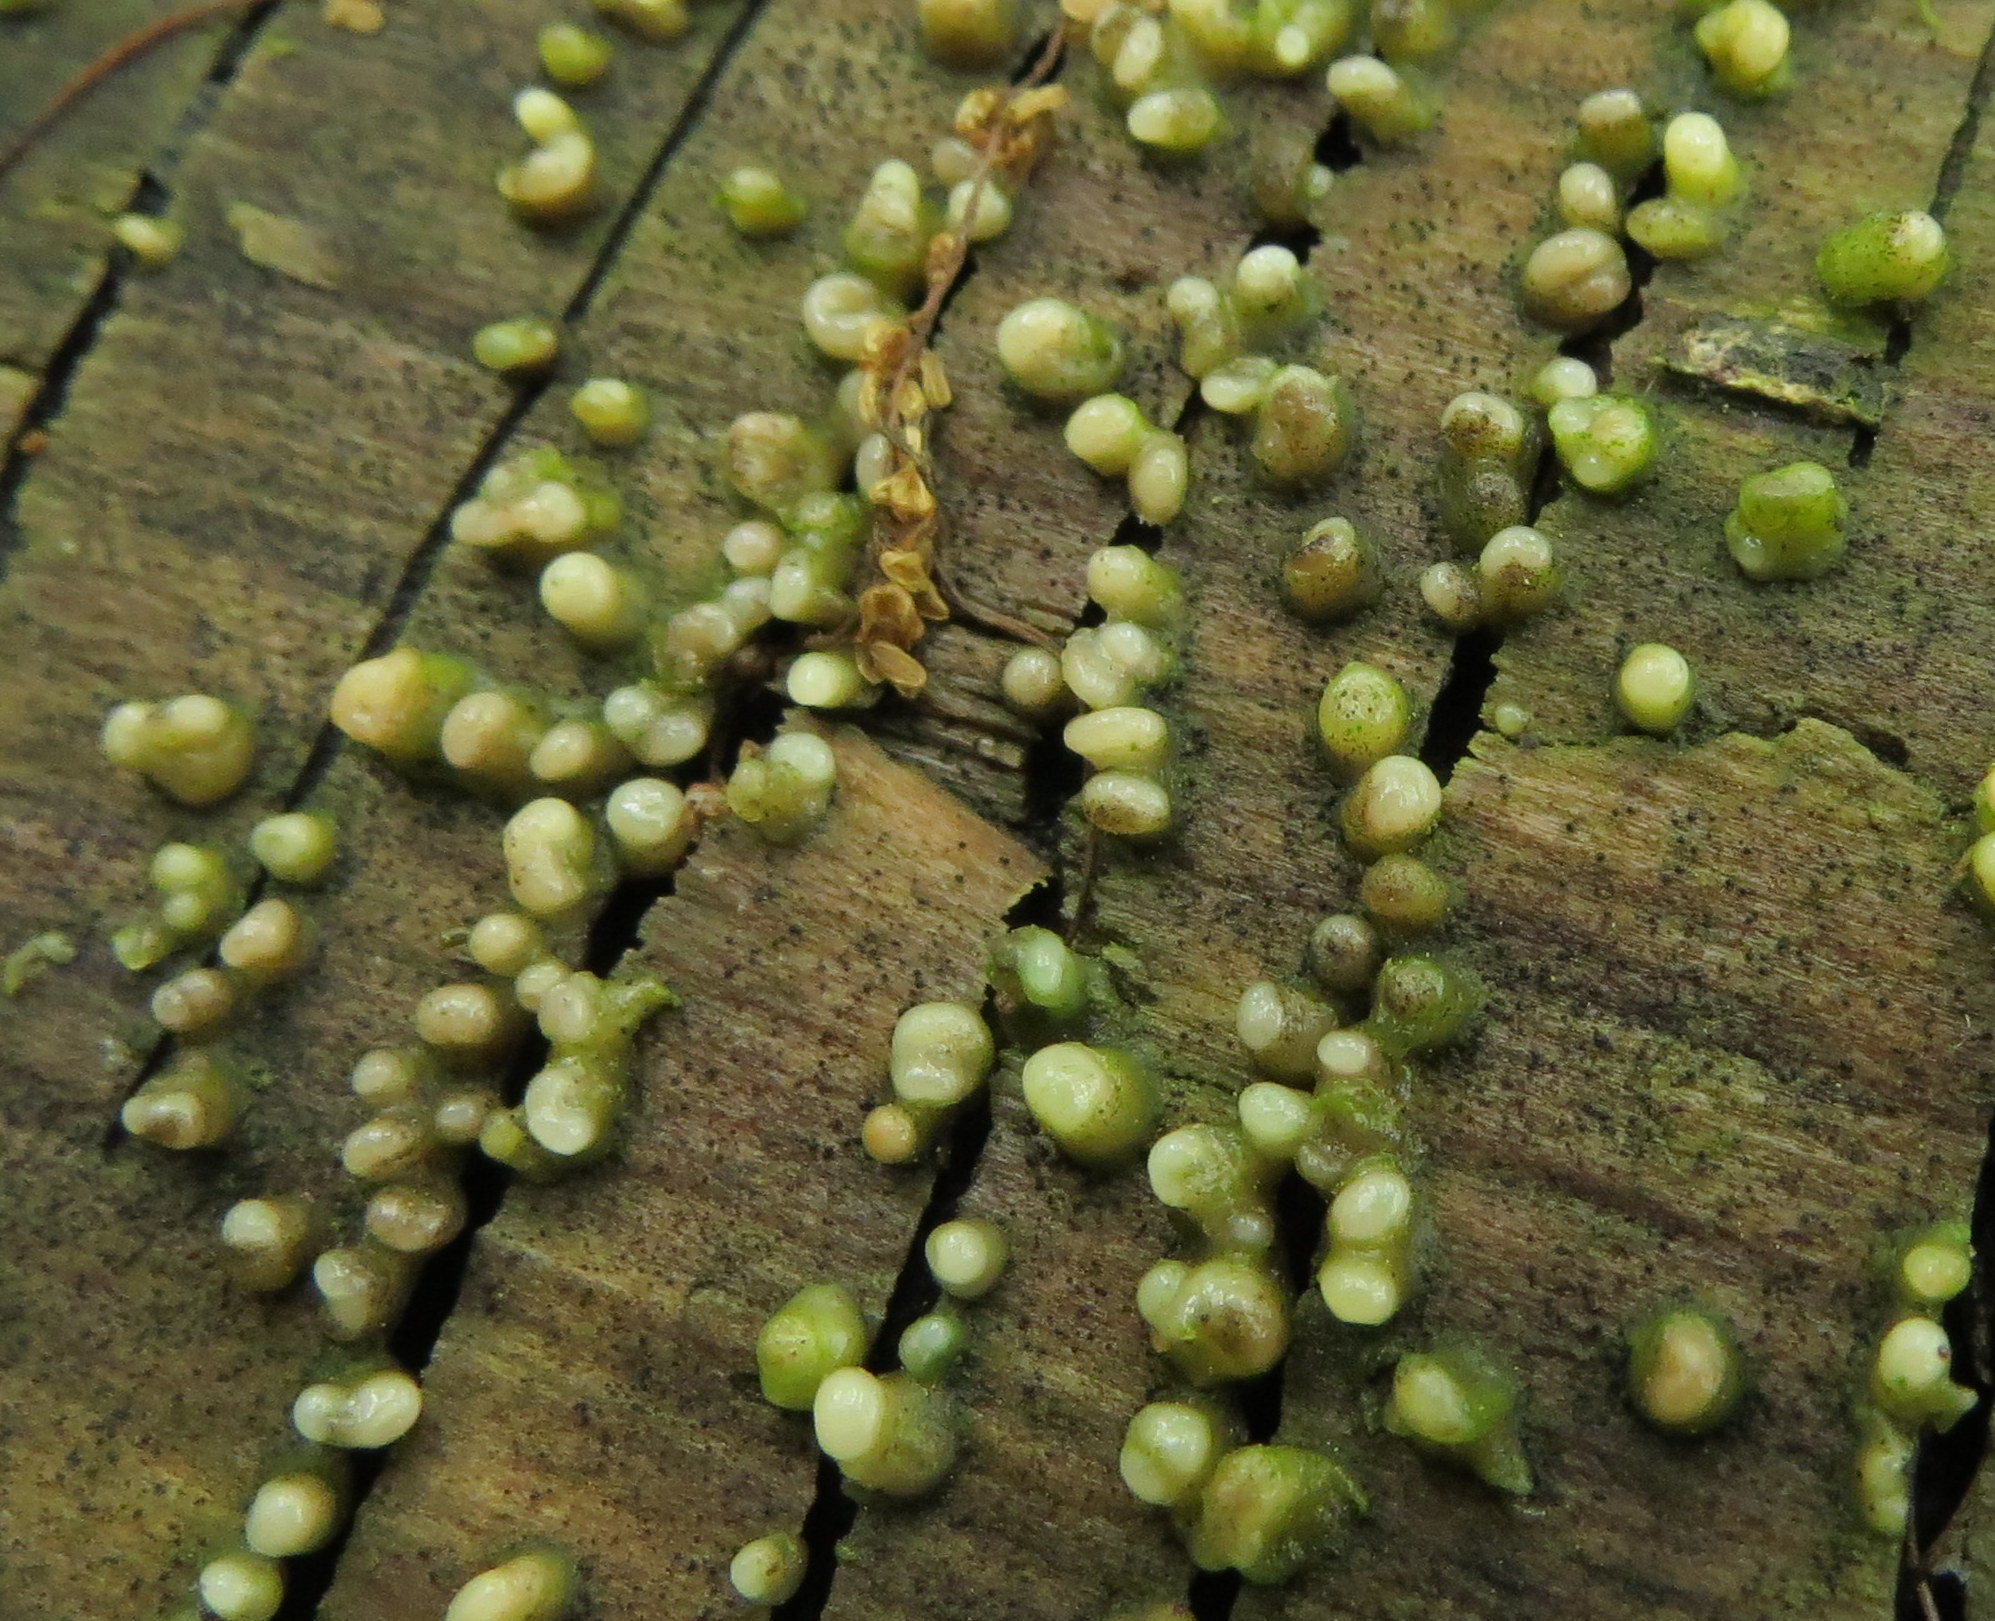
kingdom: Fungi
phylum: Basidiomycota
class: Atractiellomycetes
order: Atractiellales
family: Phleogenaceae
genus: Helicogloea
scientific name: Helicogloea compressa
